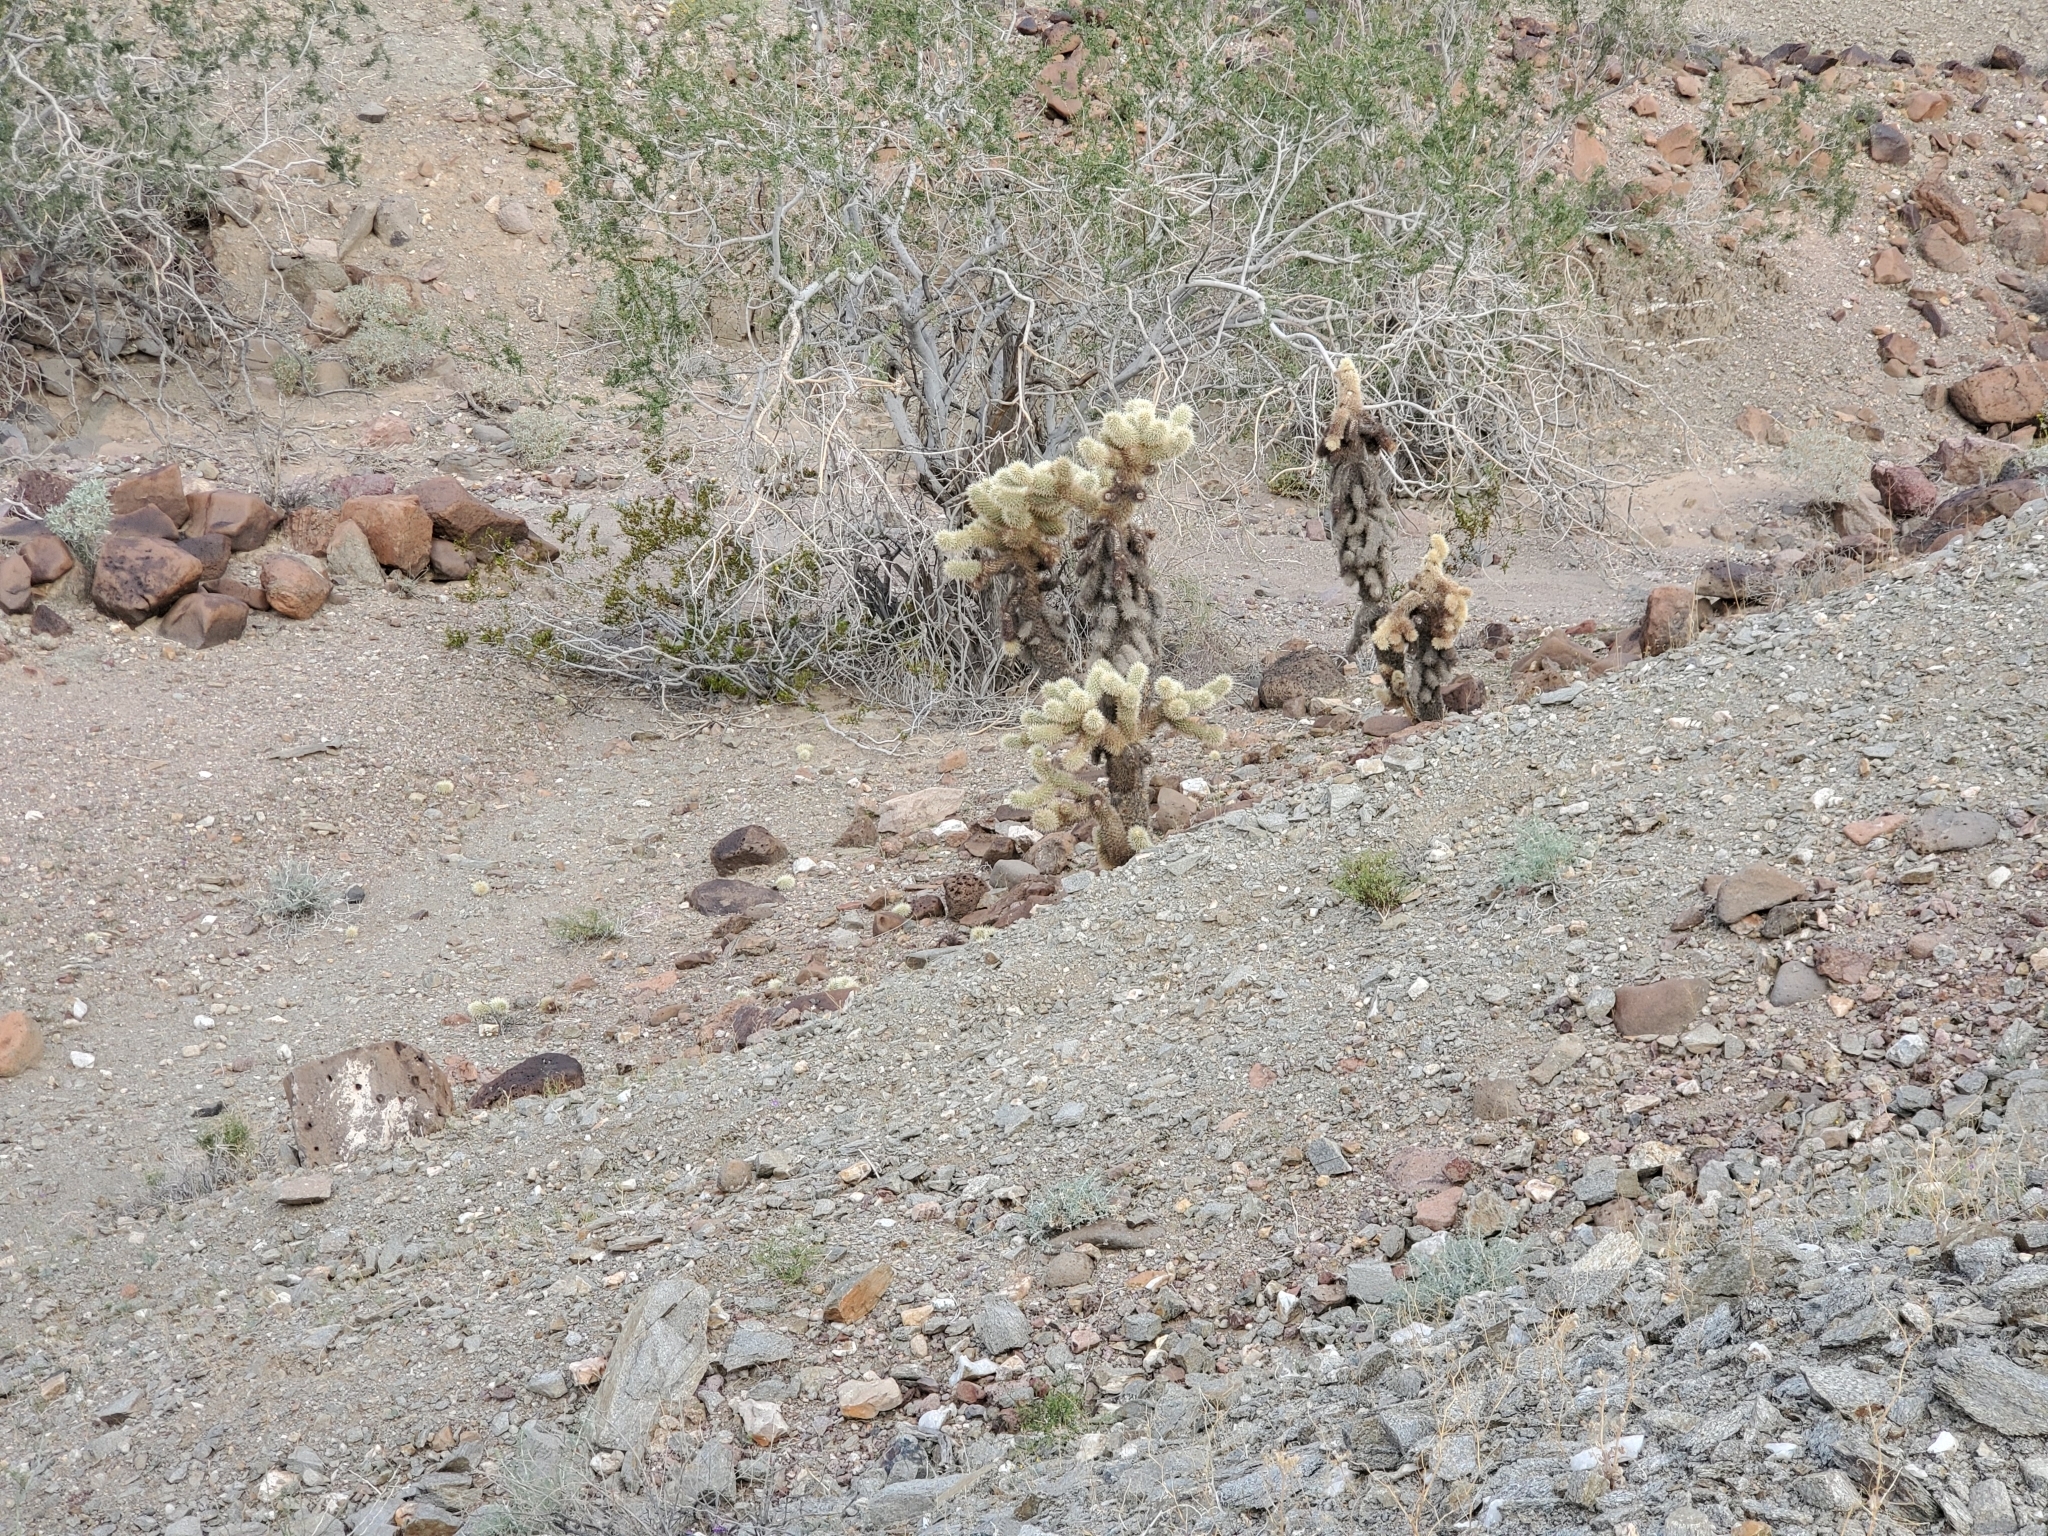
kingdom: Plantae
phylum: Tracheophyta
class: Magnoliopsida
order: Caryophyllales
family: Cactaceae
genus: Cylindropuntia
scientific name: Cylindropuntia fosbergii
